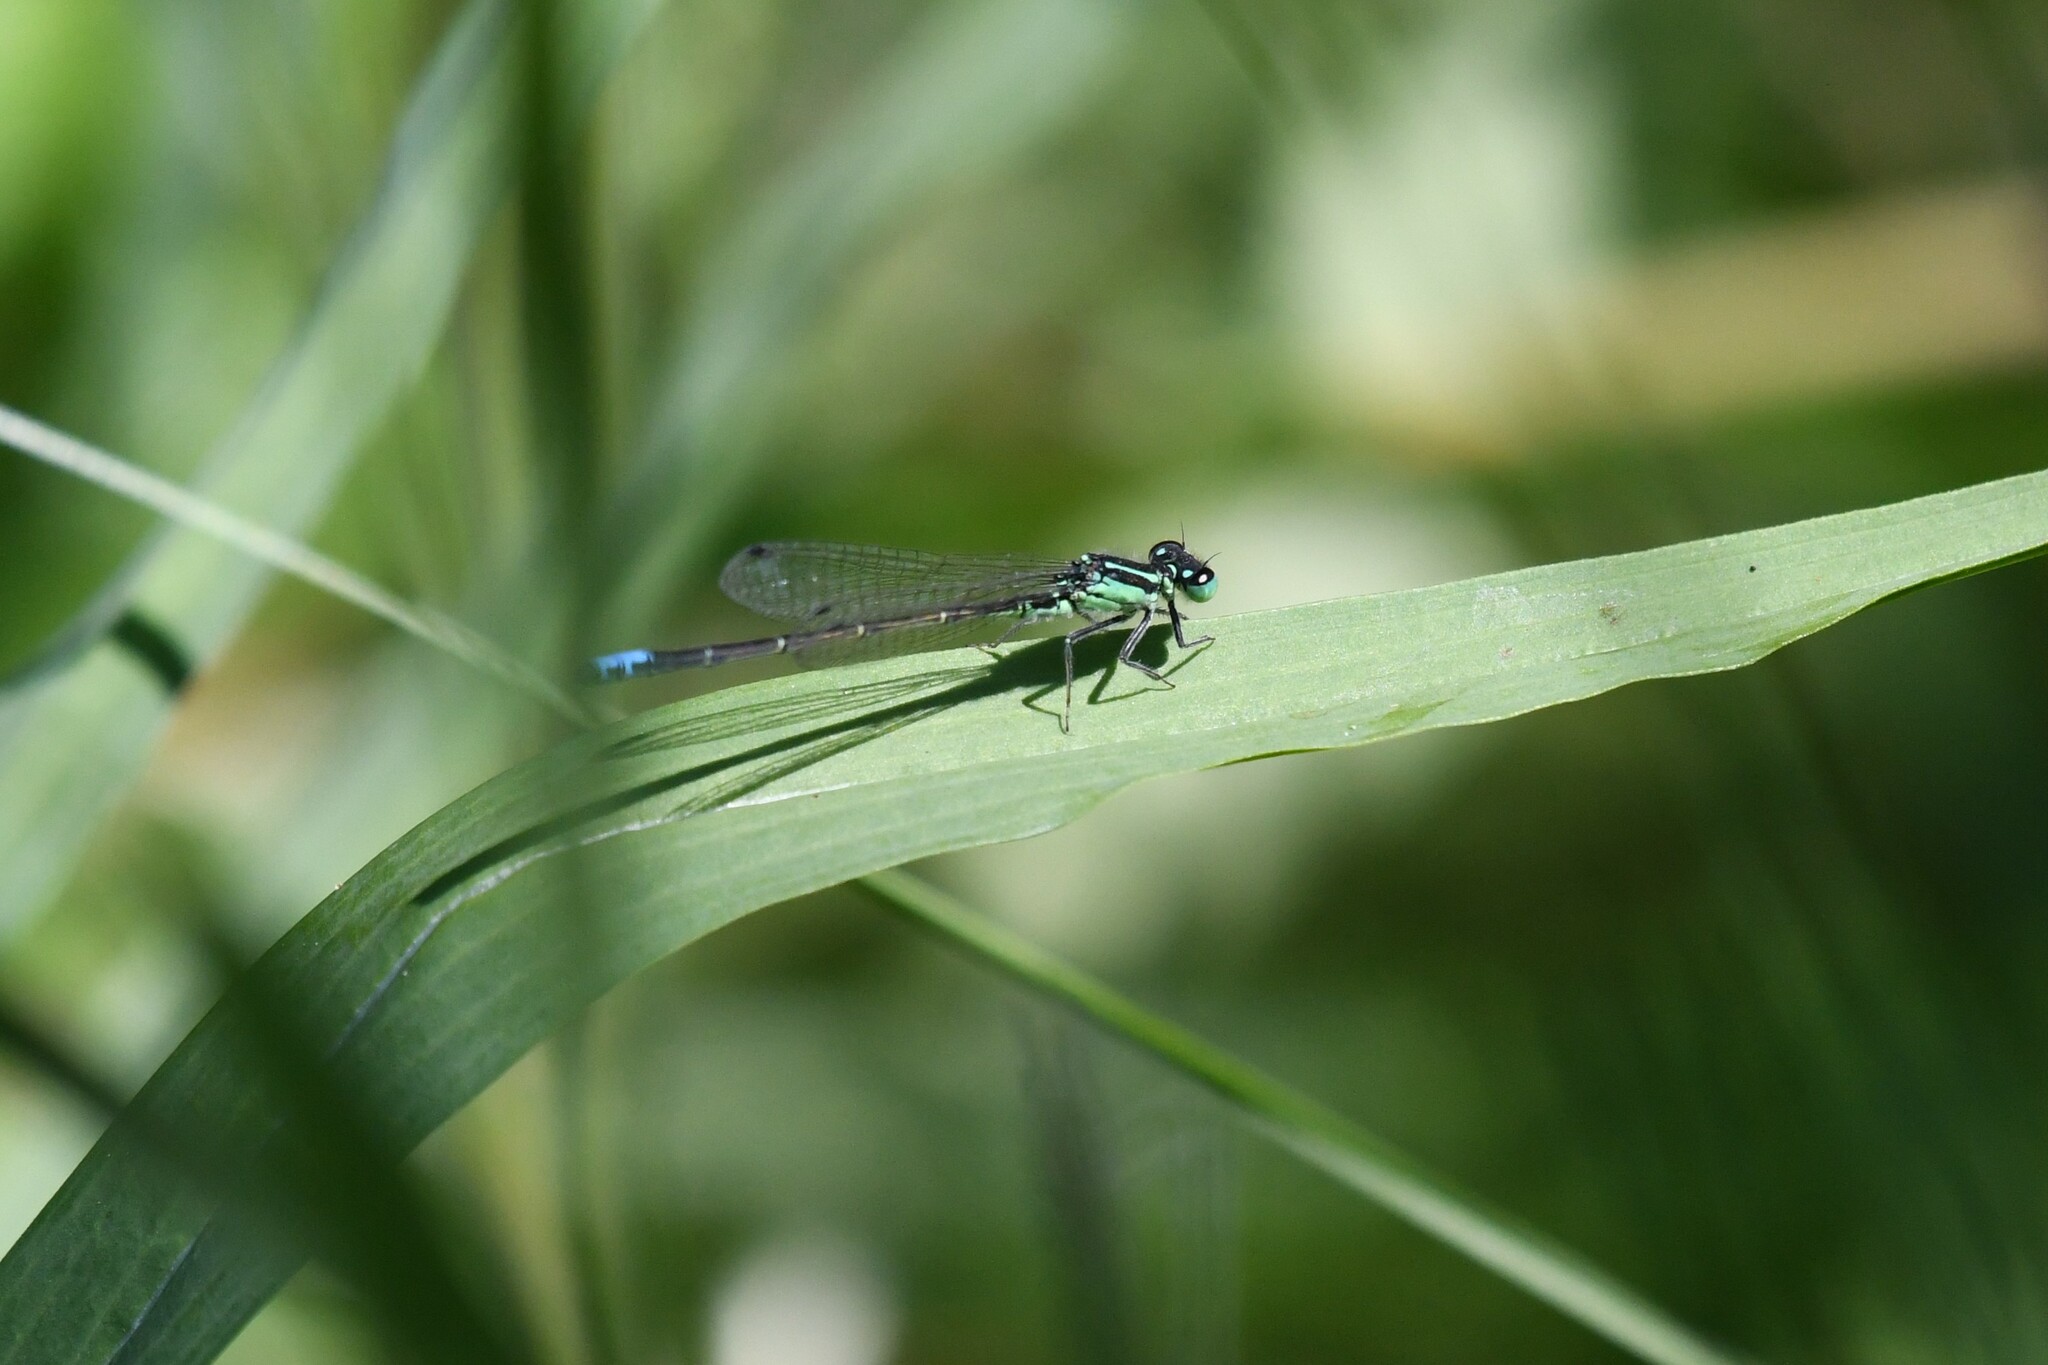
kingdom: Animalia
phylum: Arthropoda
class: Insecta
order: Odonata
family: Coenagrionidae
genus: Ischnura
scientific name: Ischnura verticalis
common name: Eastern forktail
